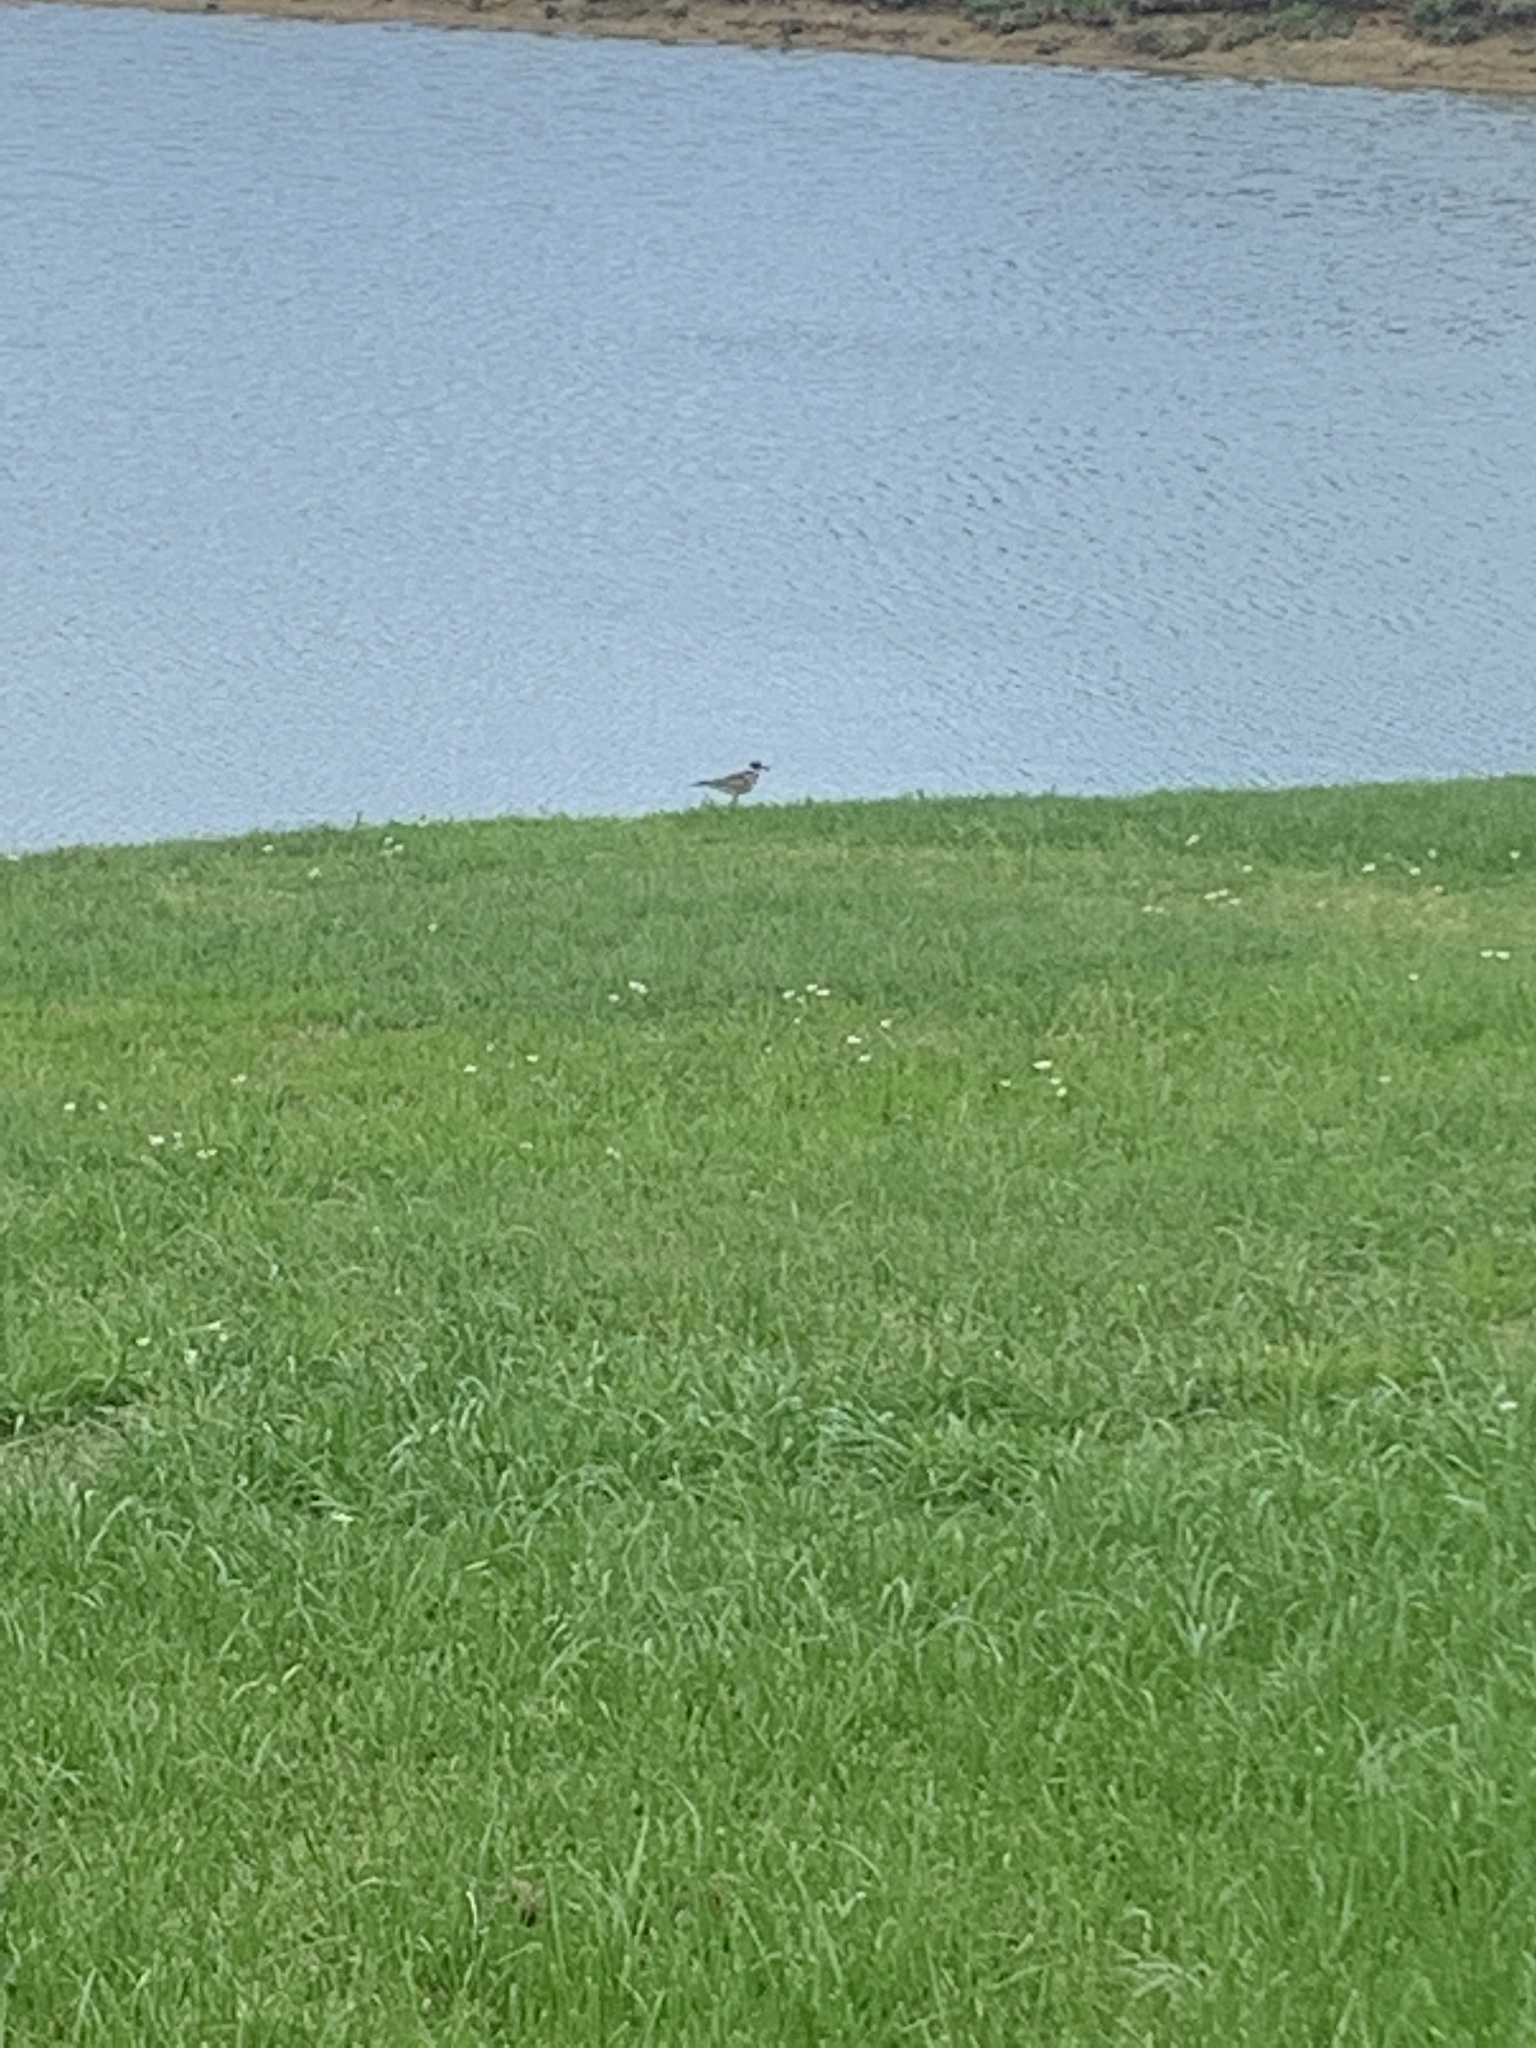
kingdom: Animalia
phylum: Chordata
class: Aves
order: Charadriiformes
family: Charadriidae
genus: Charadrius
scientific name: Charadrius vociferus
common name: Killdeer
